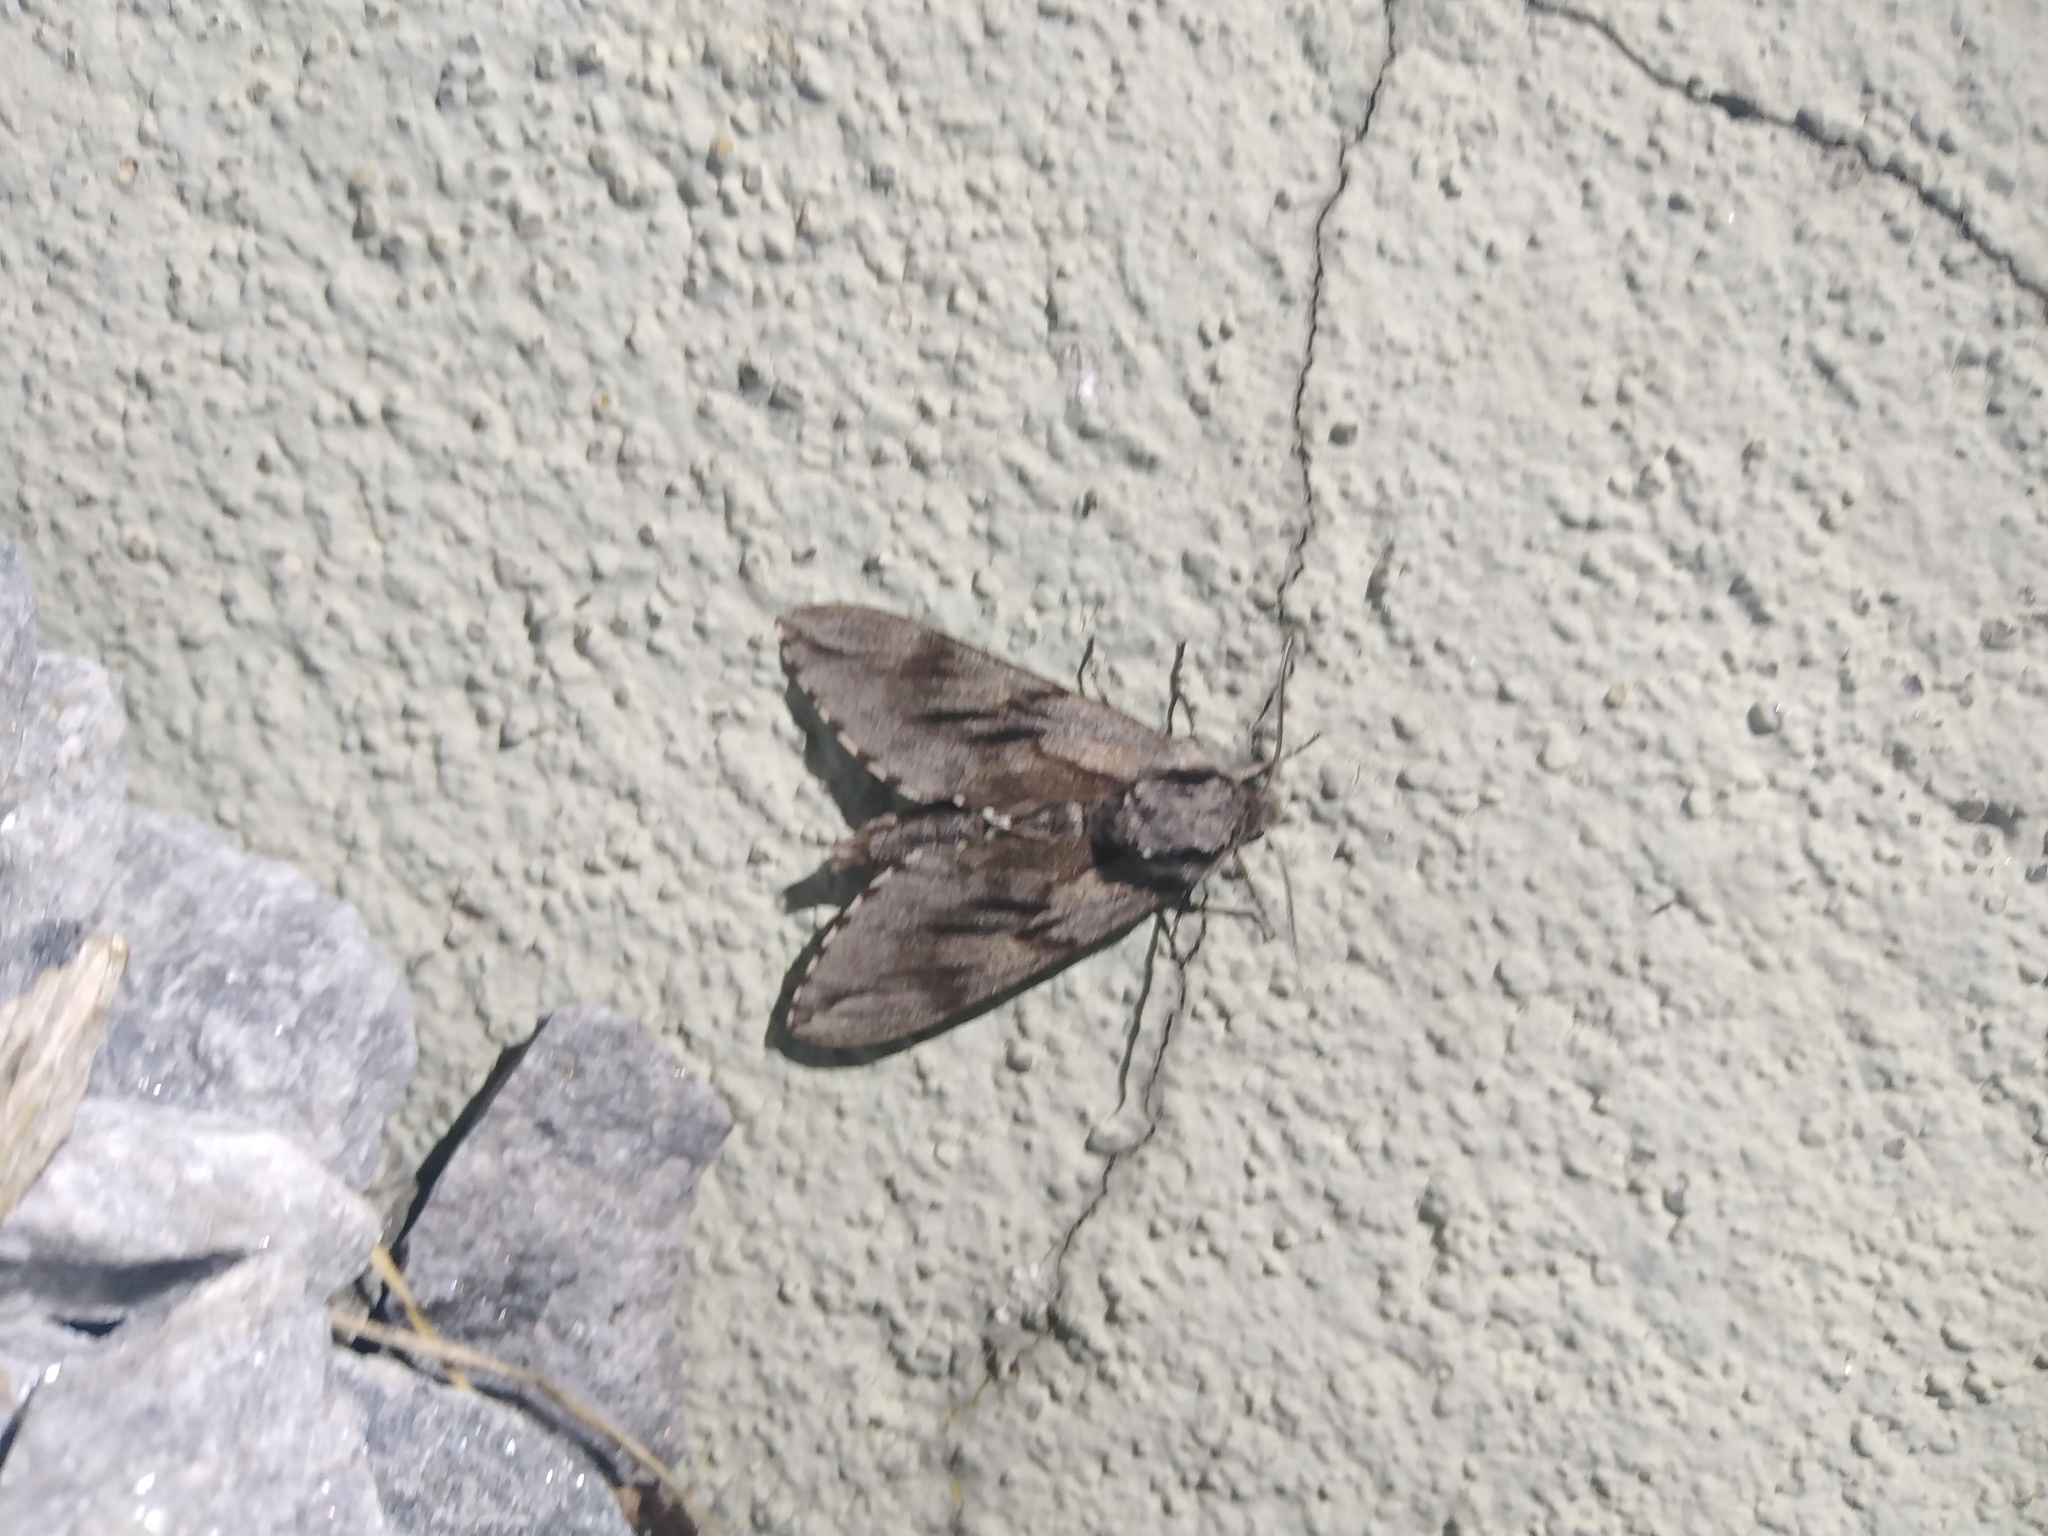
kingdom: Animalia
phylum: Arthropoda
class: Insecta
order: Lepidoptera
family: Sphingidae
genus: Sphinx
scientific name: Sphinx pinastri
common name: Pine hawk-moth
